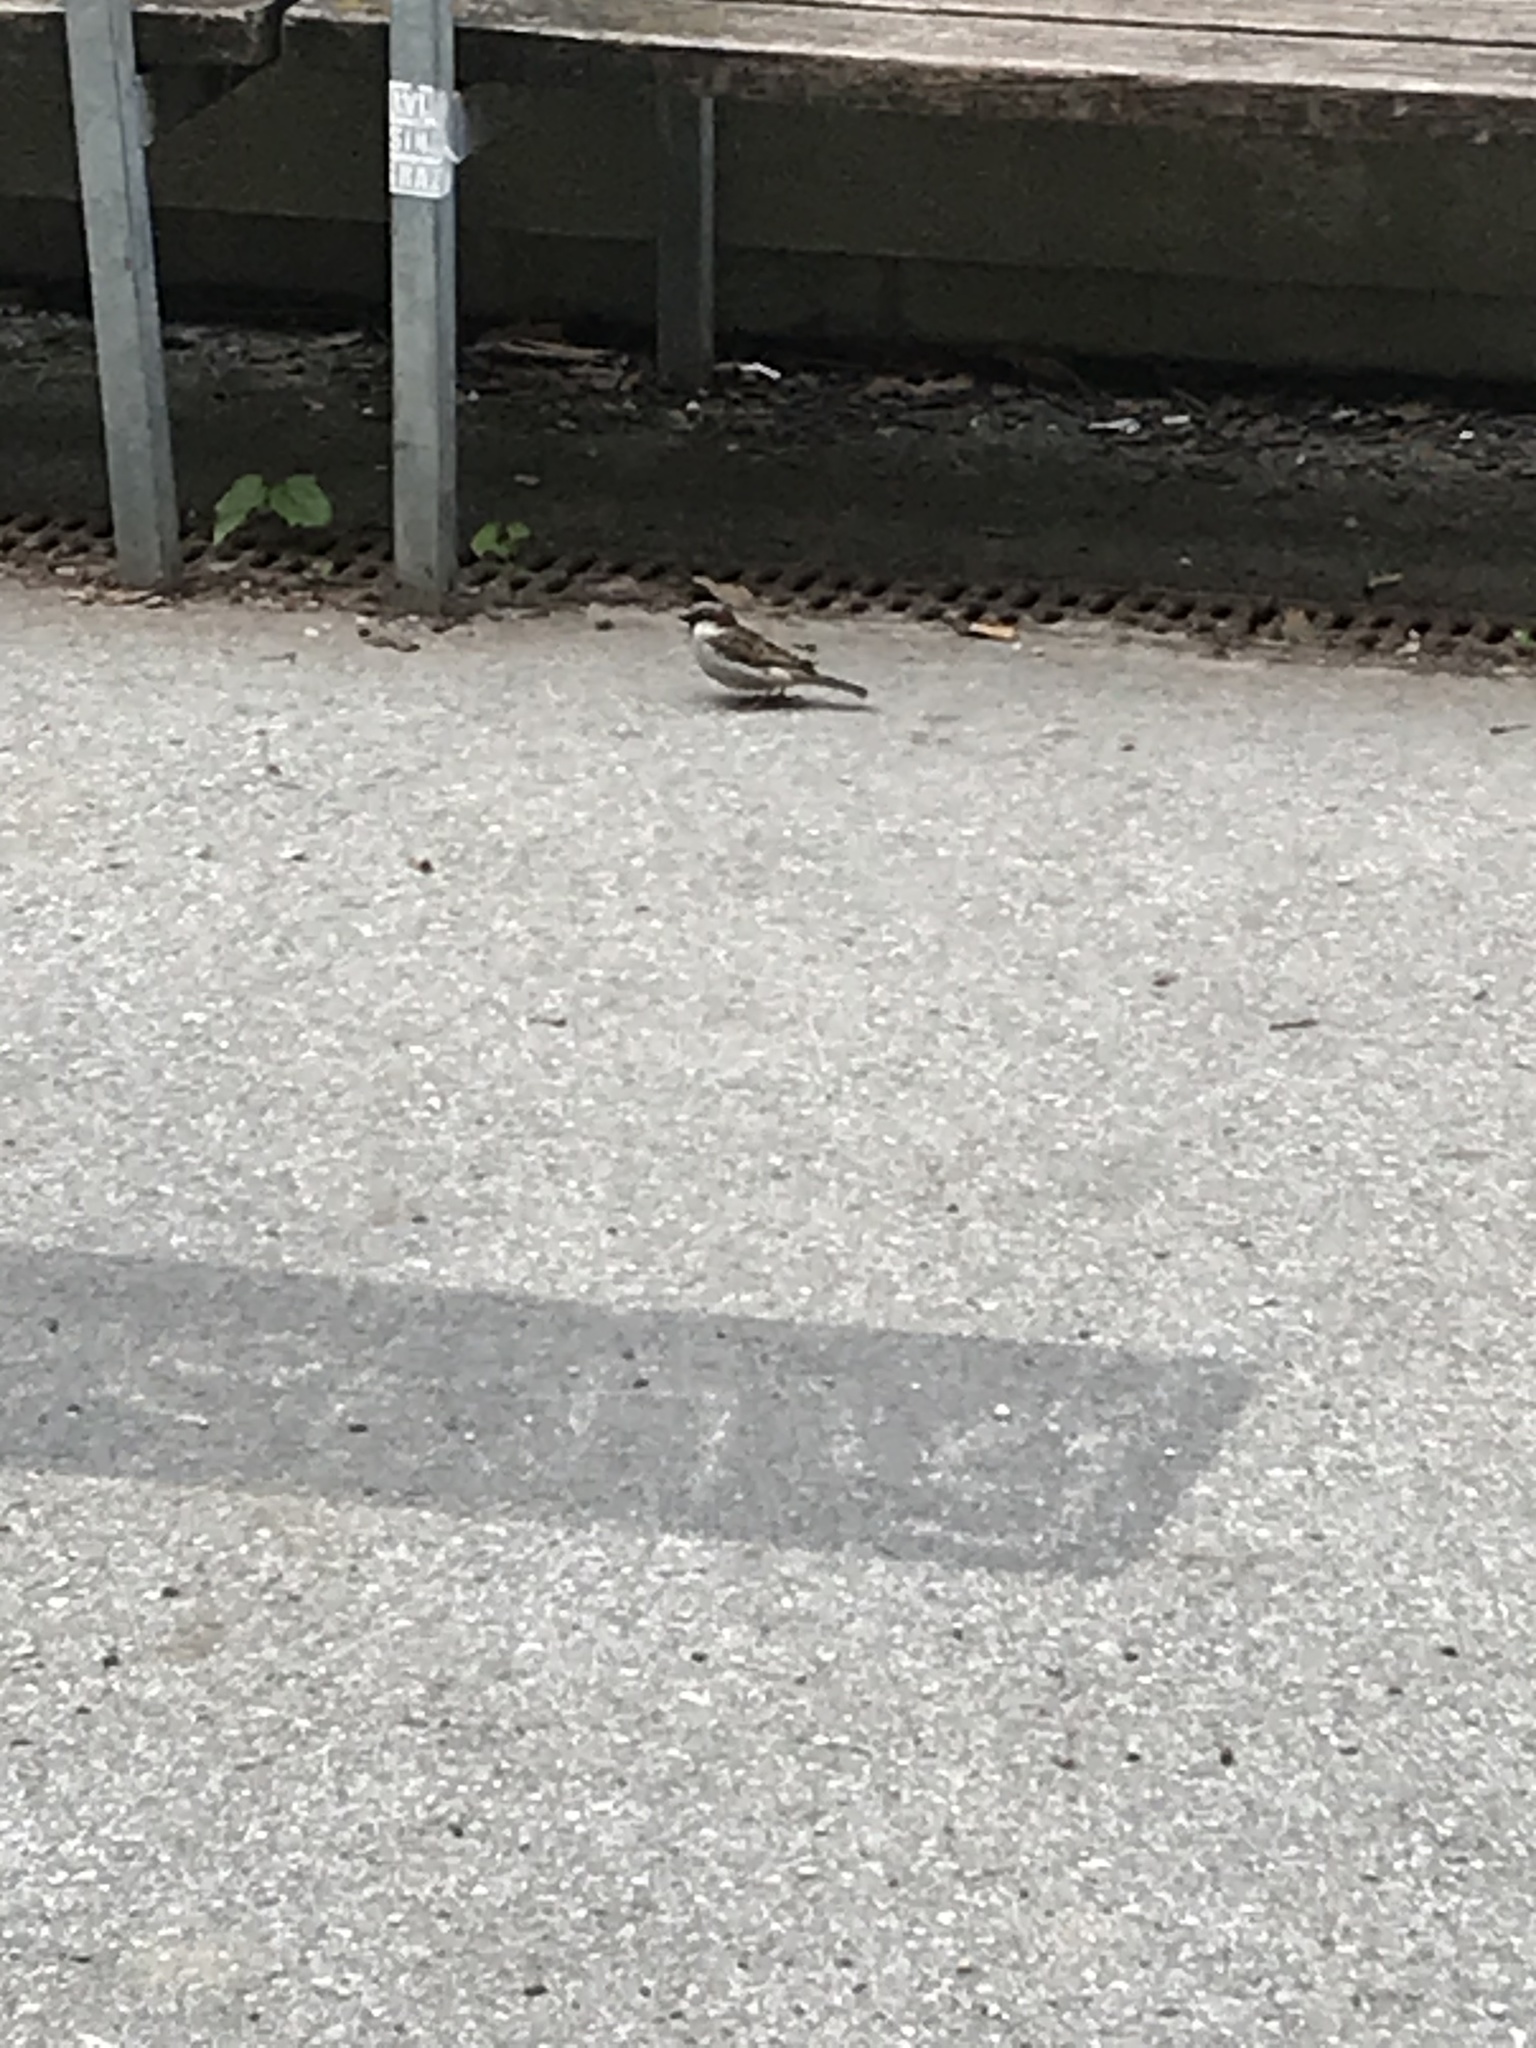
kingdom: Animalia
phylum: Chordata
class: Aves
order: Passeriformes
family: Passeridae
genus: Passer
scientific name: Passer domesticus
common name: House sparrow
